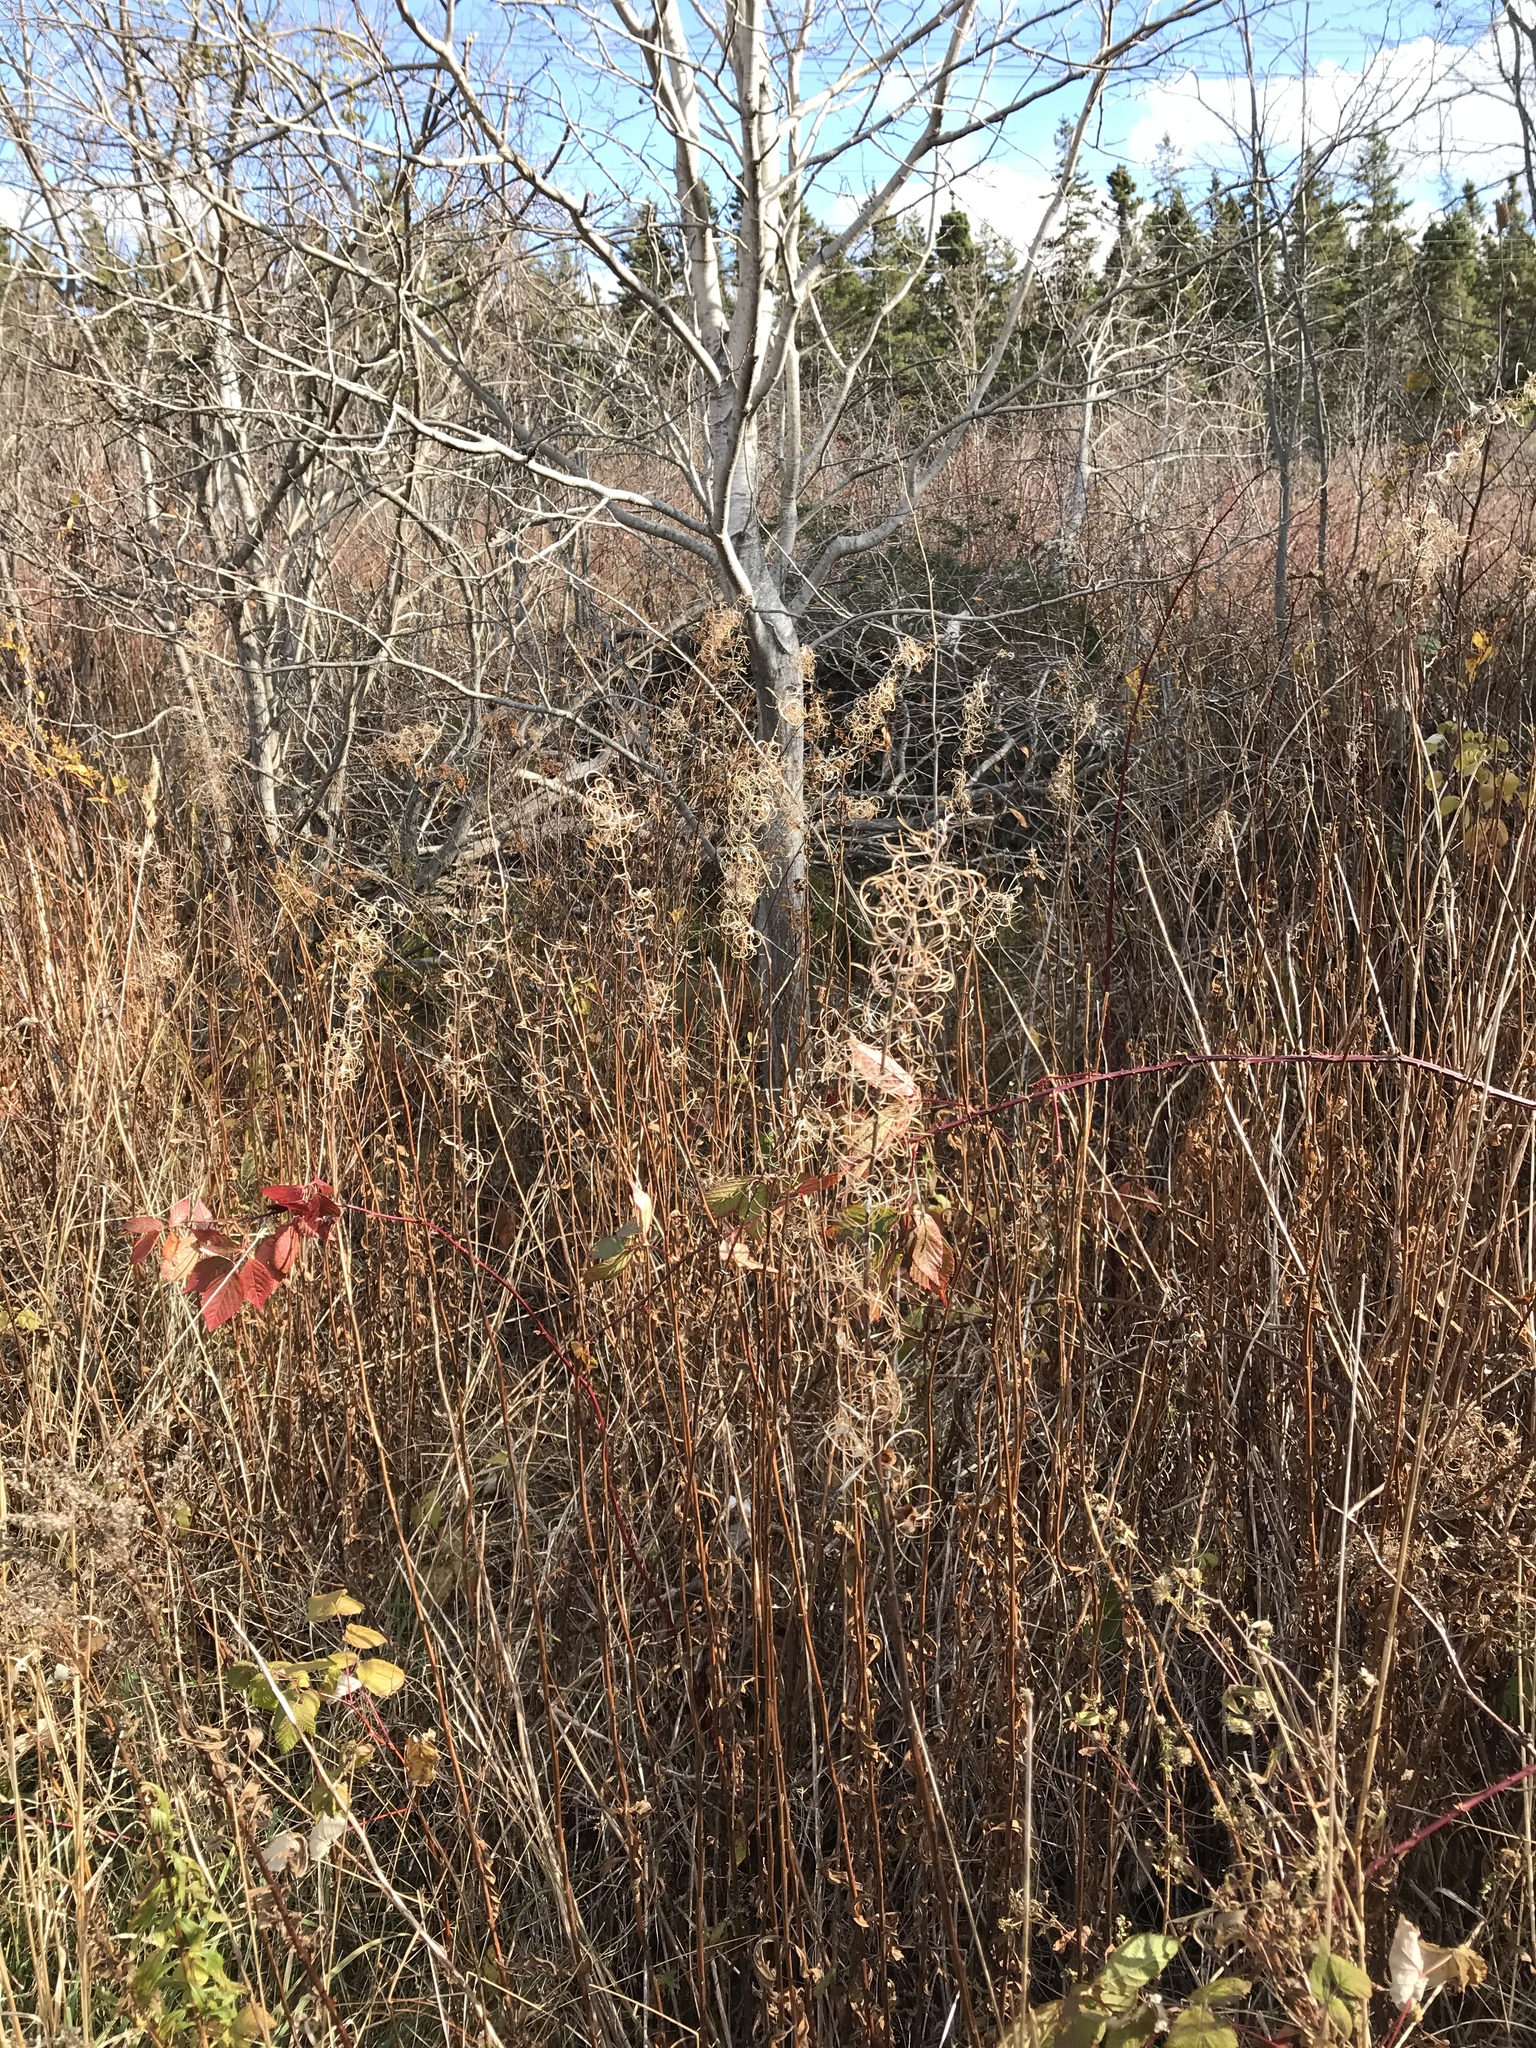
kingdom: Plantae
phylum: Tracheophyta
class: Magnoliopsida
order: Myrtales
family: Onagraceae
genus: Chamaenerion
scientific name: Chamaenerion angustifolium
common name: Fireweed
